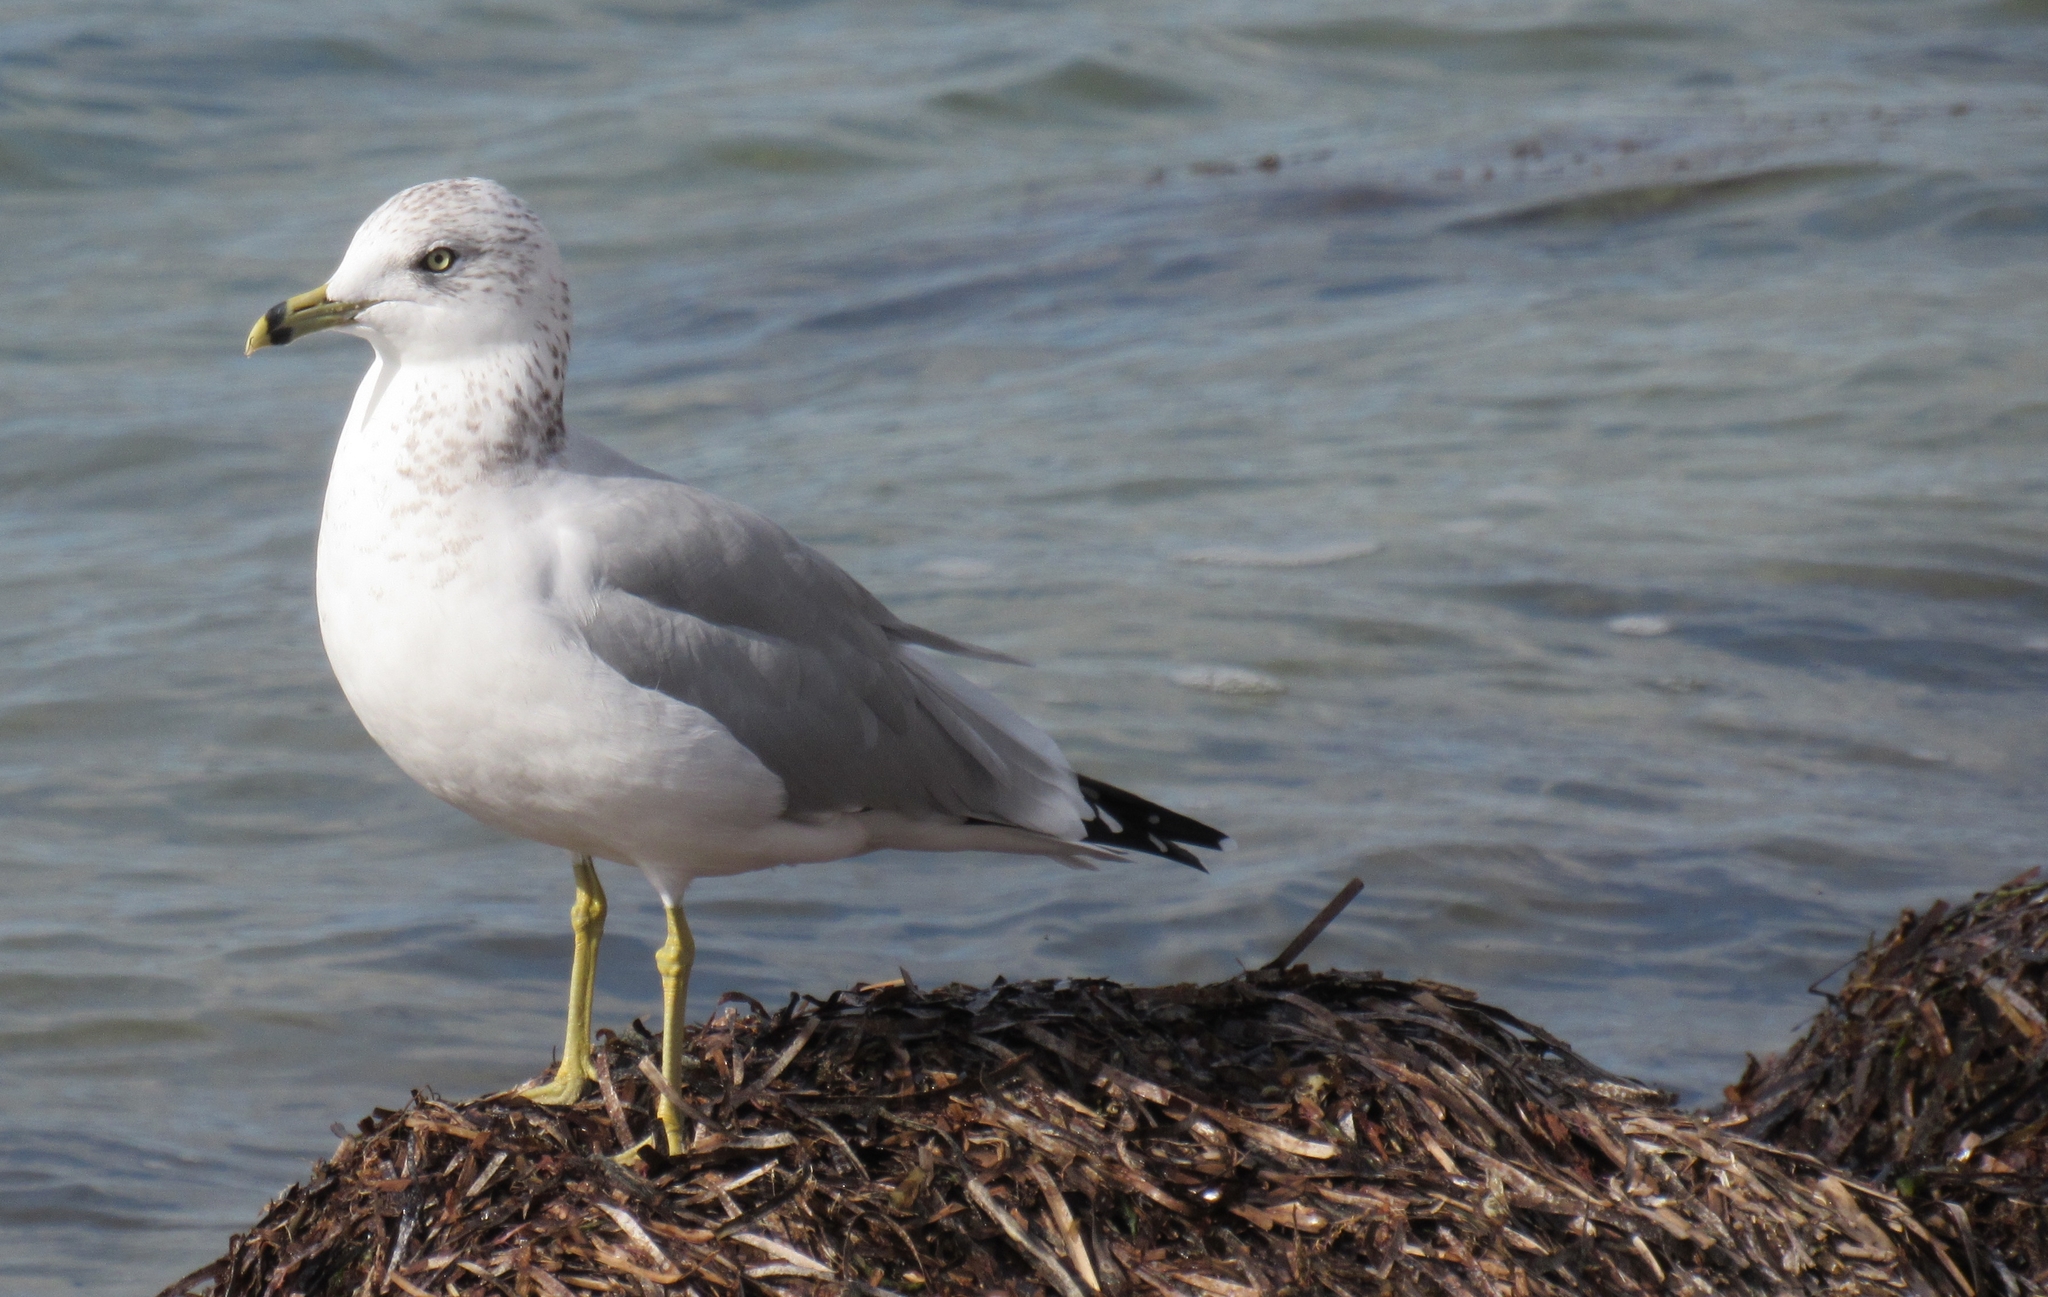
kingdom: Animalia
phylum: Chordata
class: Aves
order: Charadriiformes
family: Laridae
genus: Larus
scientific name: Larus delawarensis
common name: Ring-billed gull
